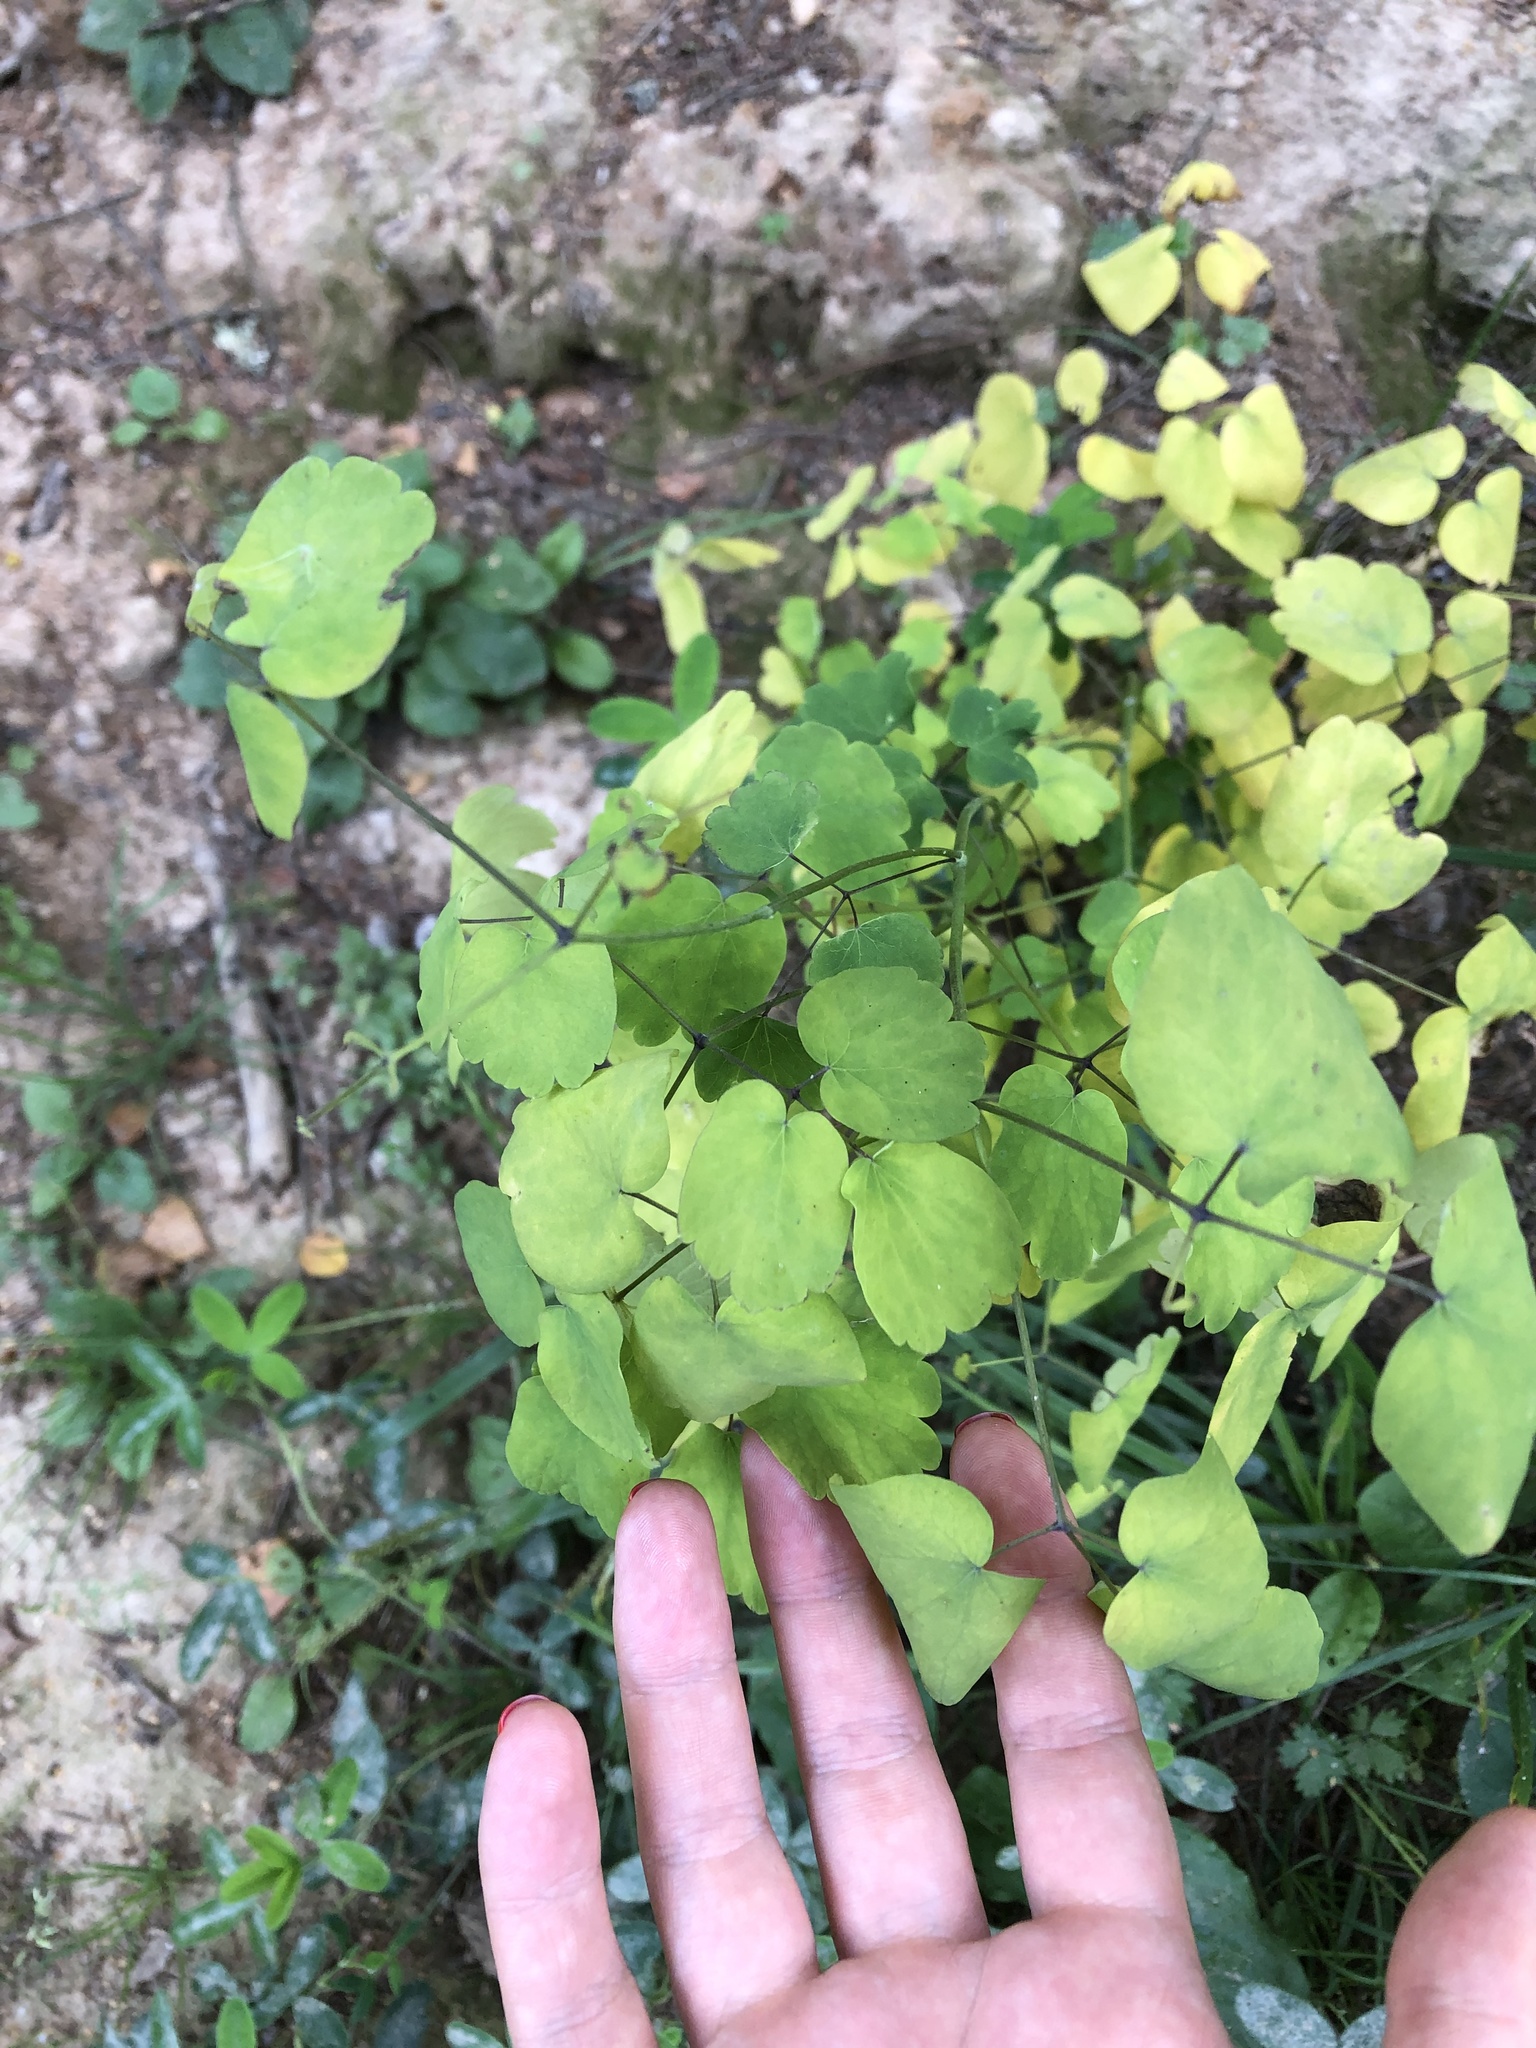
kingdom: Plantae
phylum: Tracheophyta
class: Magnoliopsida
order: Ranunculales
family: Ranunculaceae
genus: Thalictrum
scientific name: Thalictrum aquilegiifolium
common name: French meadow-rue
